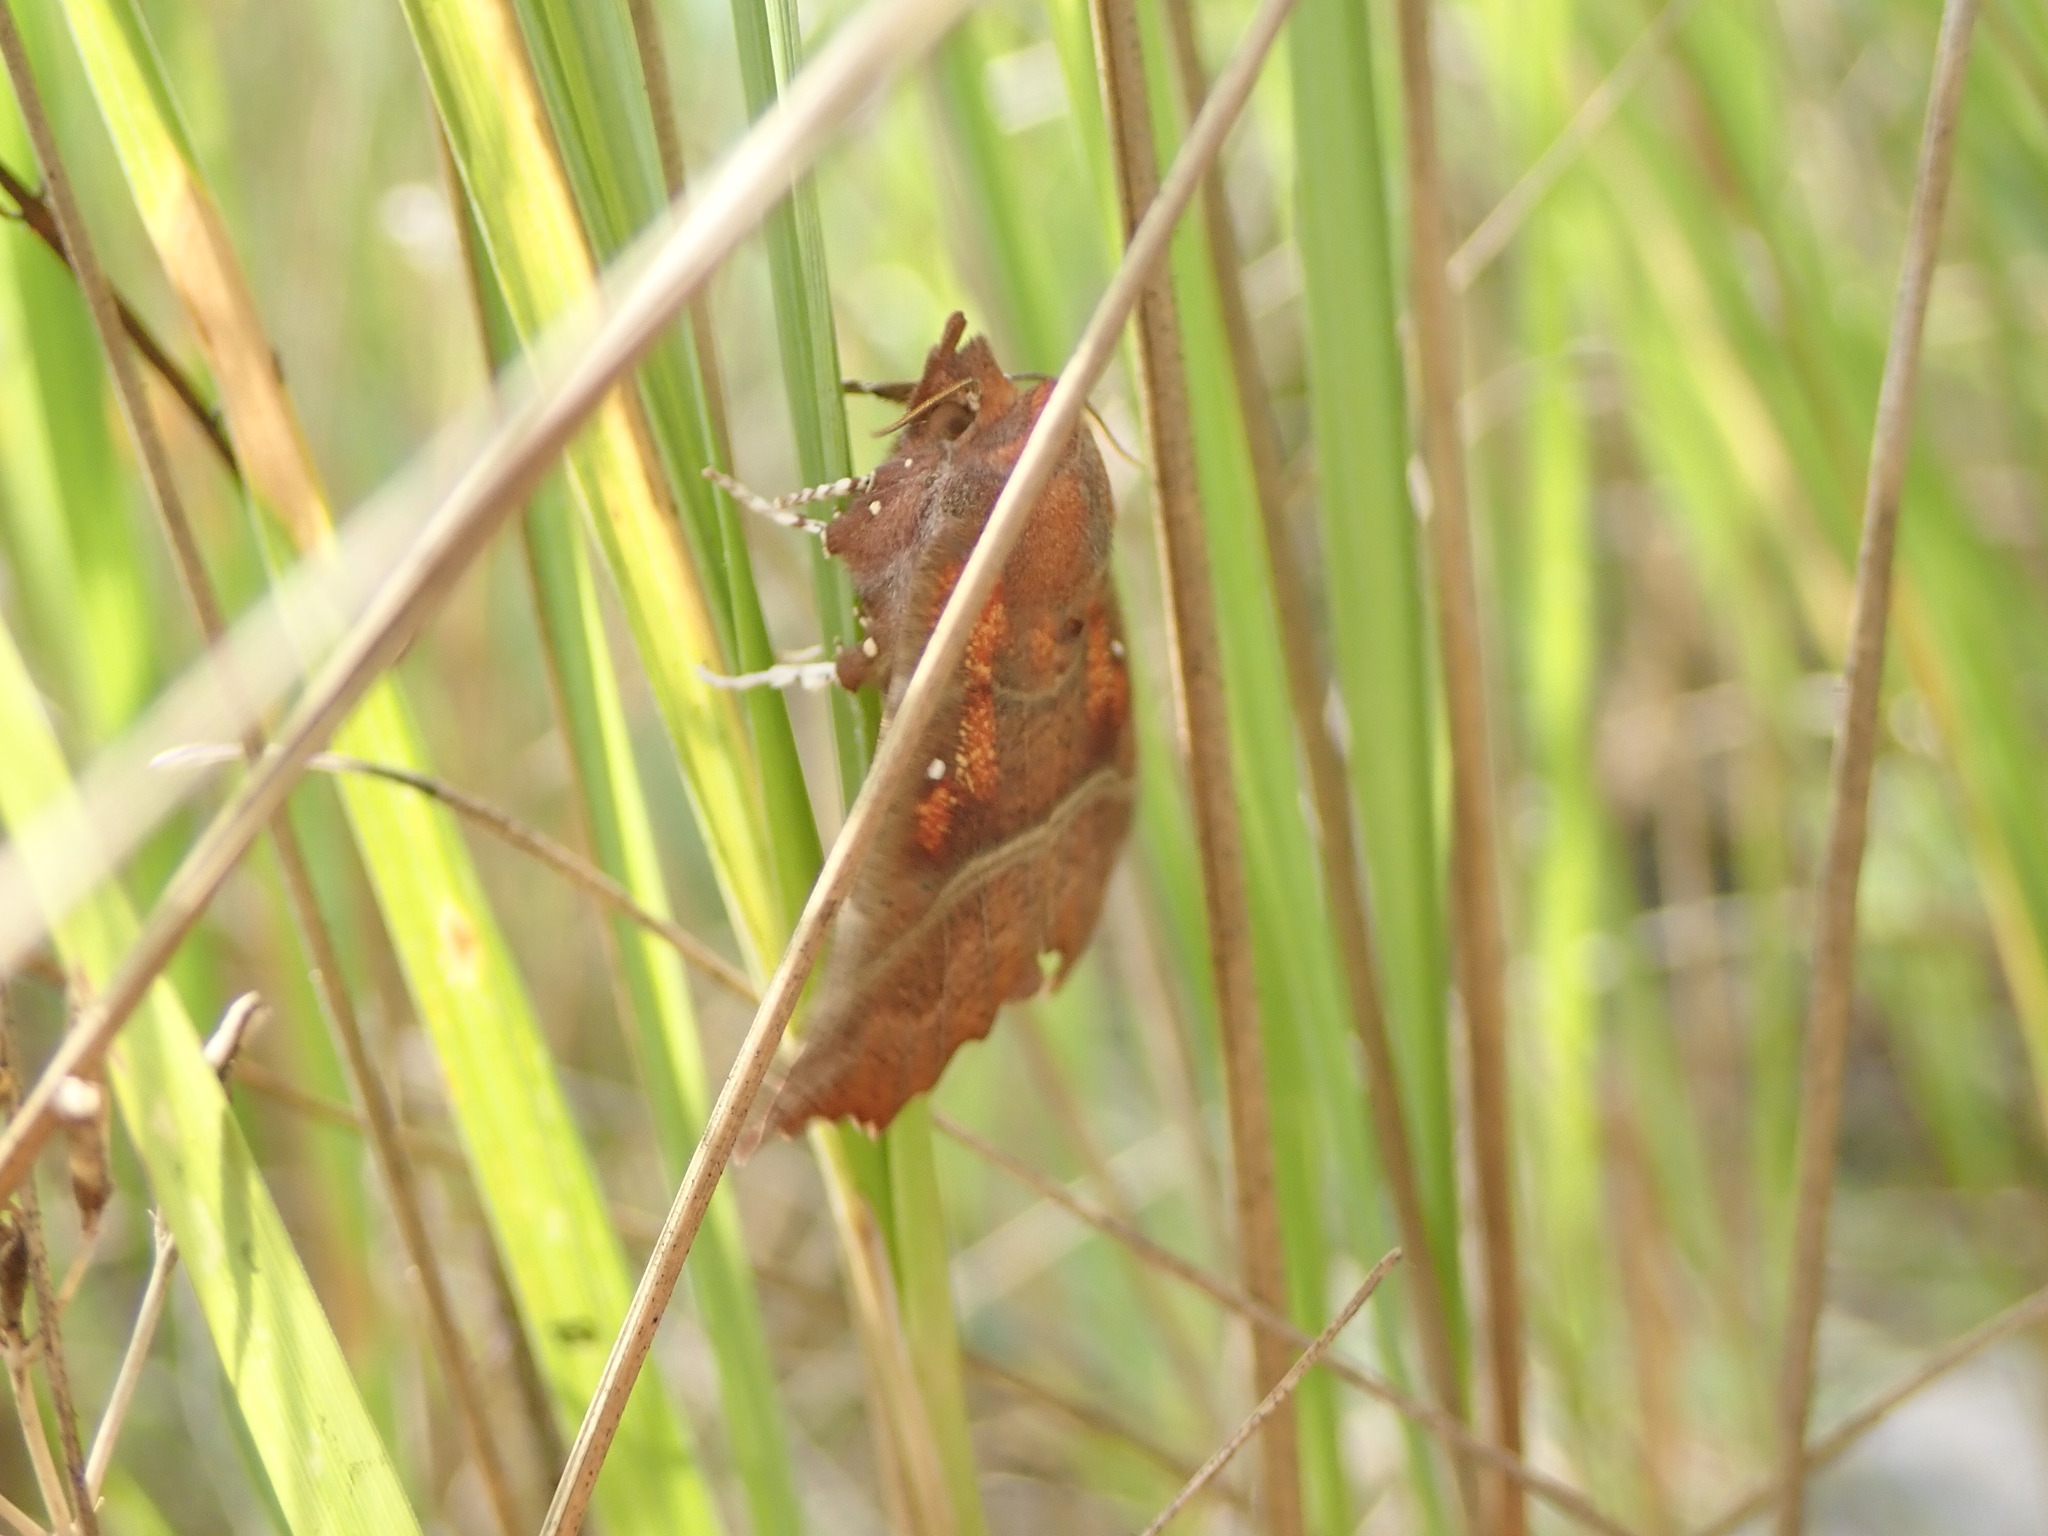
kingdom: Animalia
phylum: Arthropoda
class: Insecta
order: Lepidoptera
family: Erebidae
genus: Scoliopteryx
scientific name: Scoliopteryx libatrix
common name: Herald
